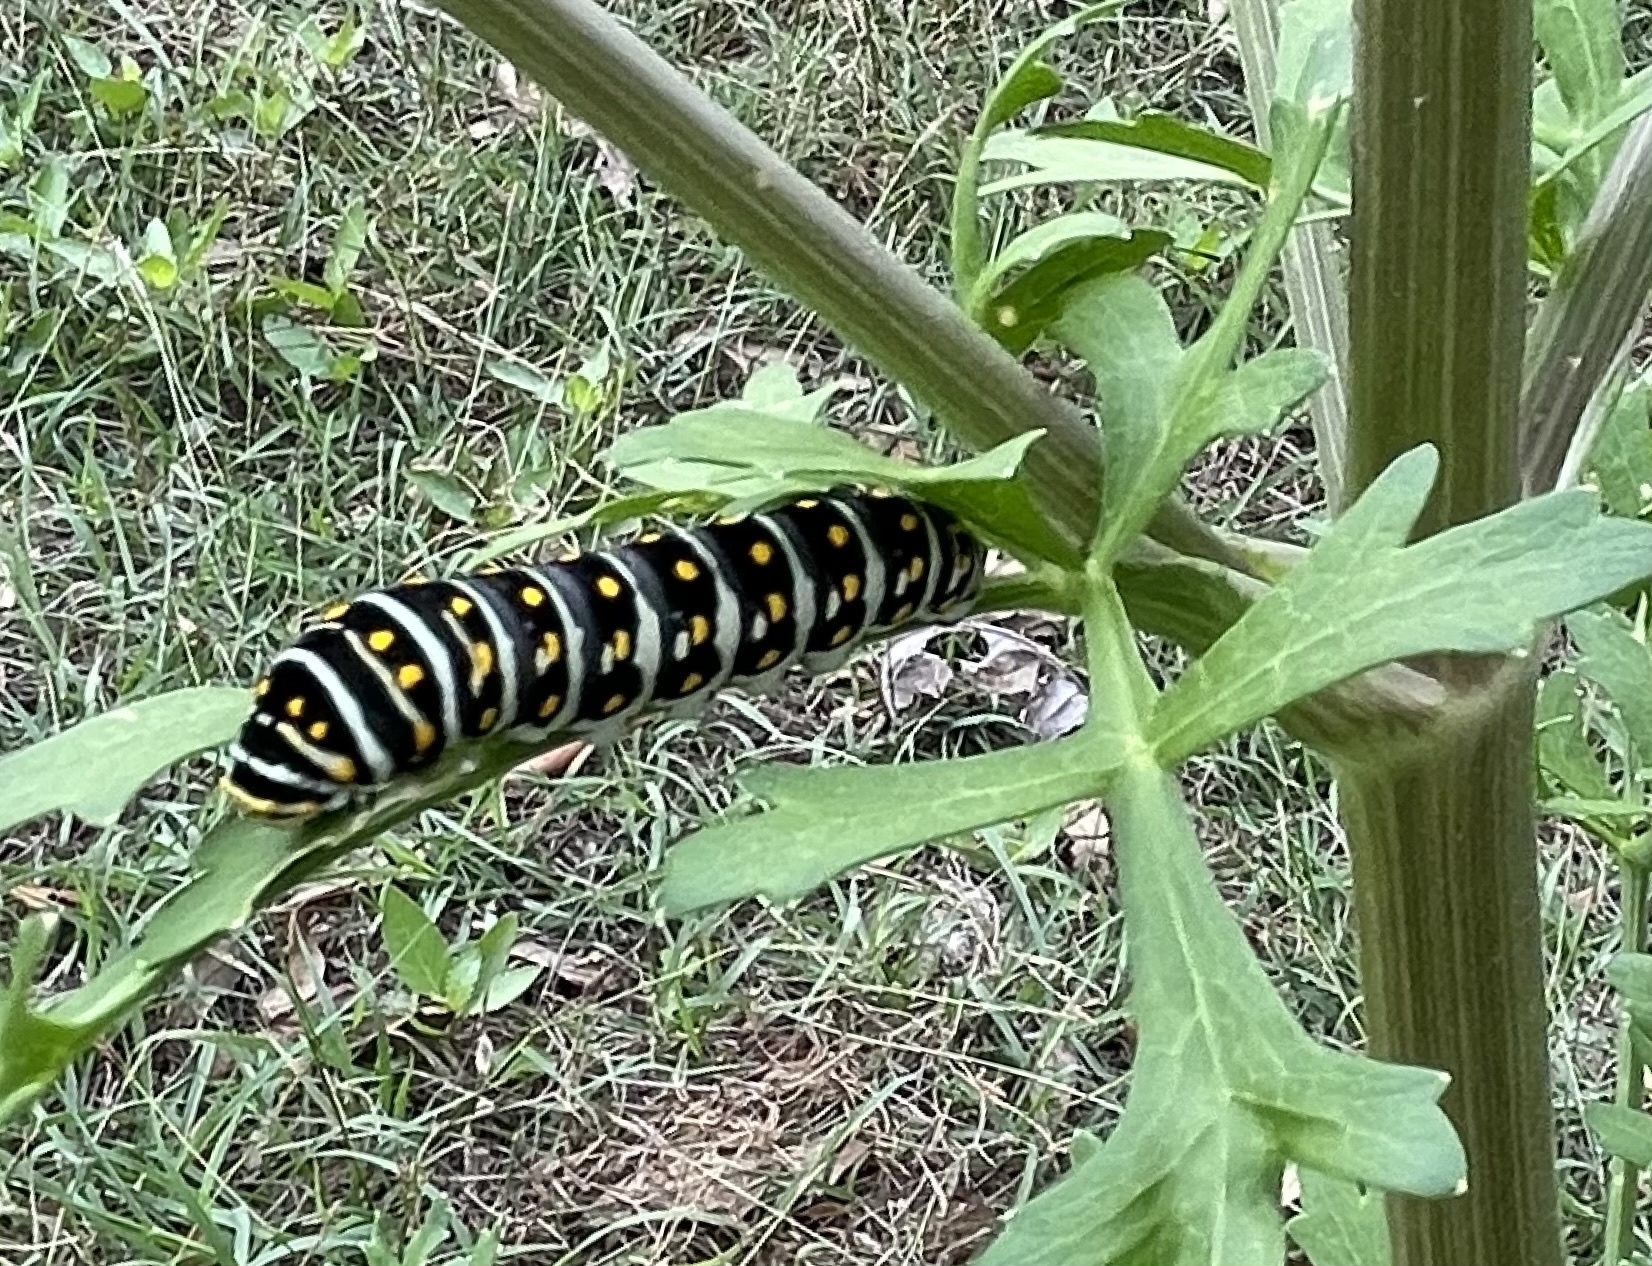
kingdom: Animalia
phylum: Arthropoda
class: Insecta
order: Lepidoptera
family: Papilionidae
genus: Papilio
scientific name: Papilio polyxenes
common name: Black swallowtail
